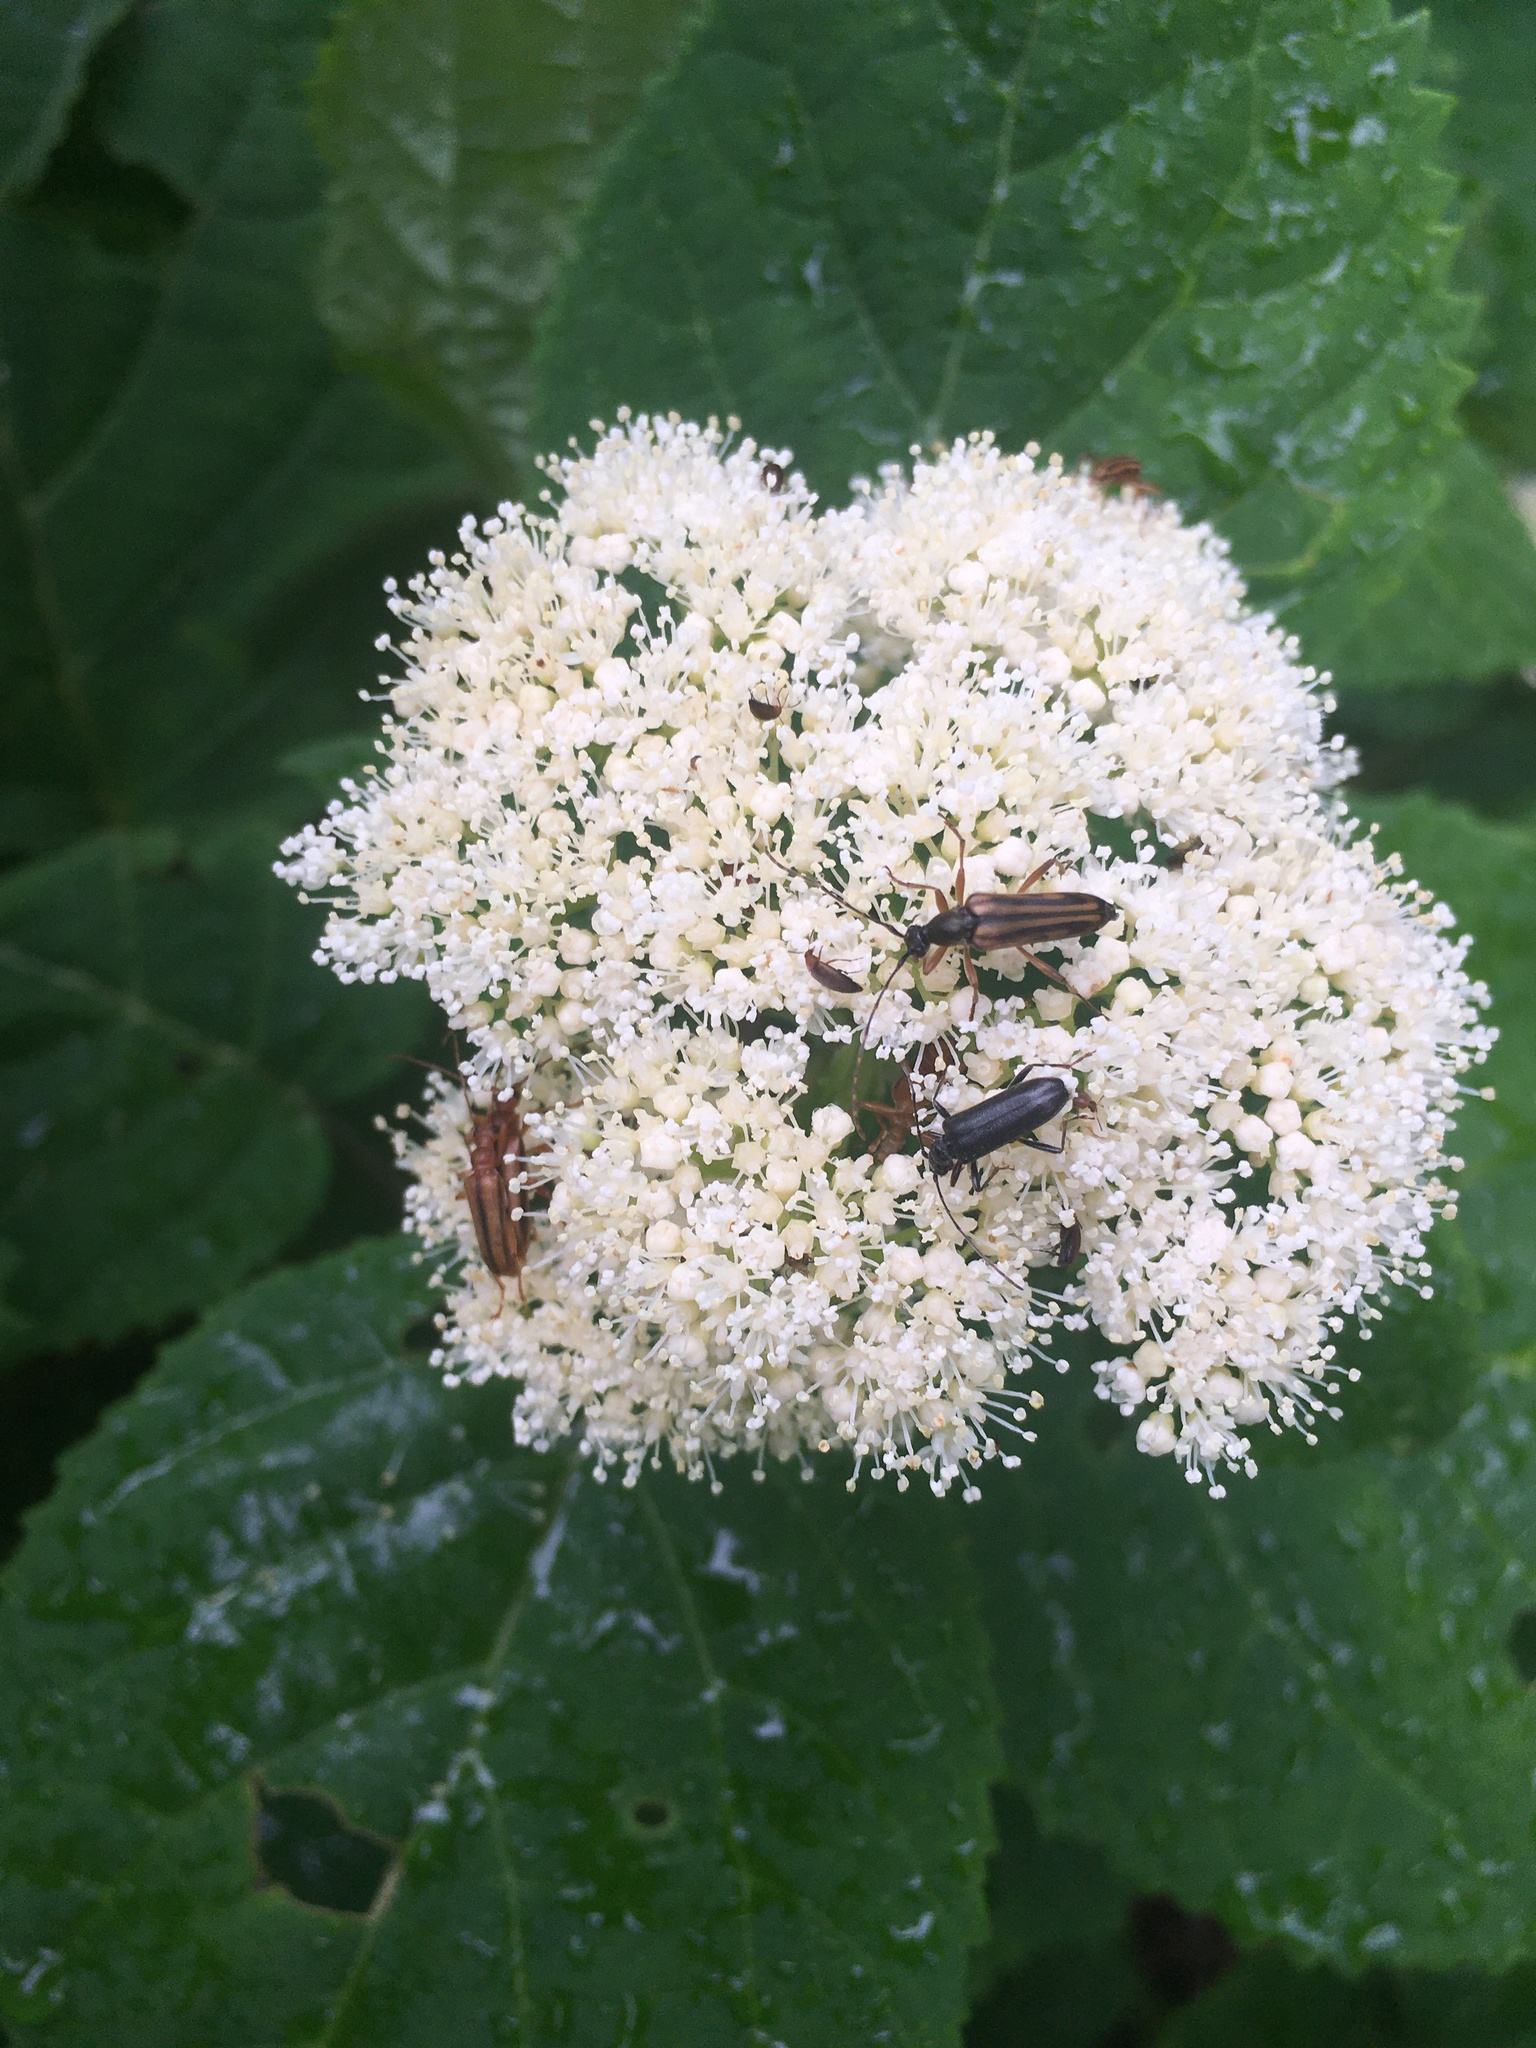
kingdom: Animalia
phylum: Arthropoda
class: Insecta
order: Coleoptera
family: Cerambycidae
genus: Grammoptera
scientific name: Grammoptera subargentata
